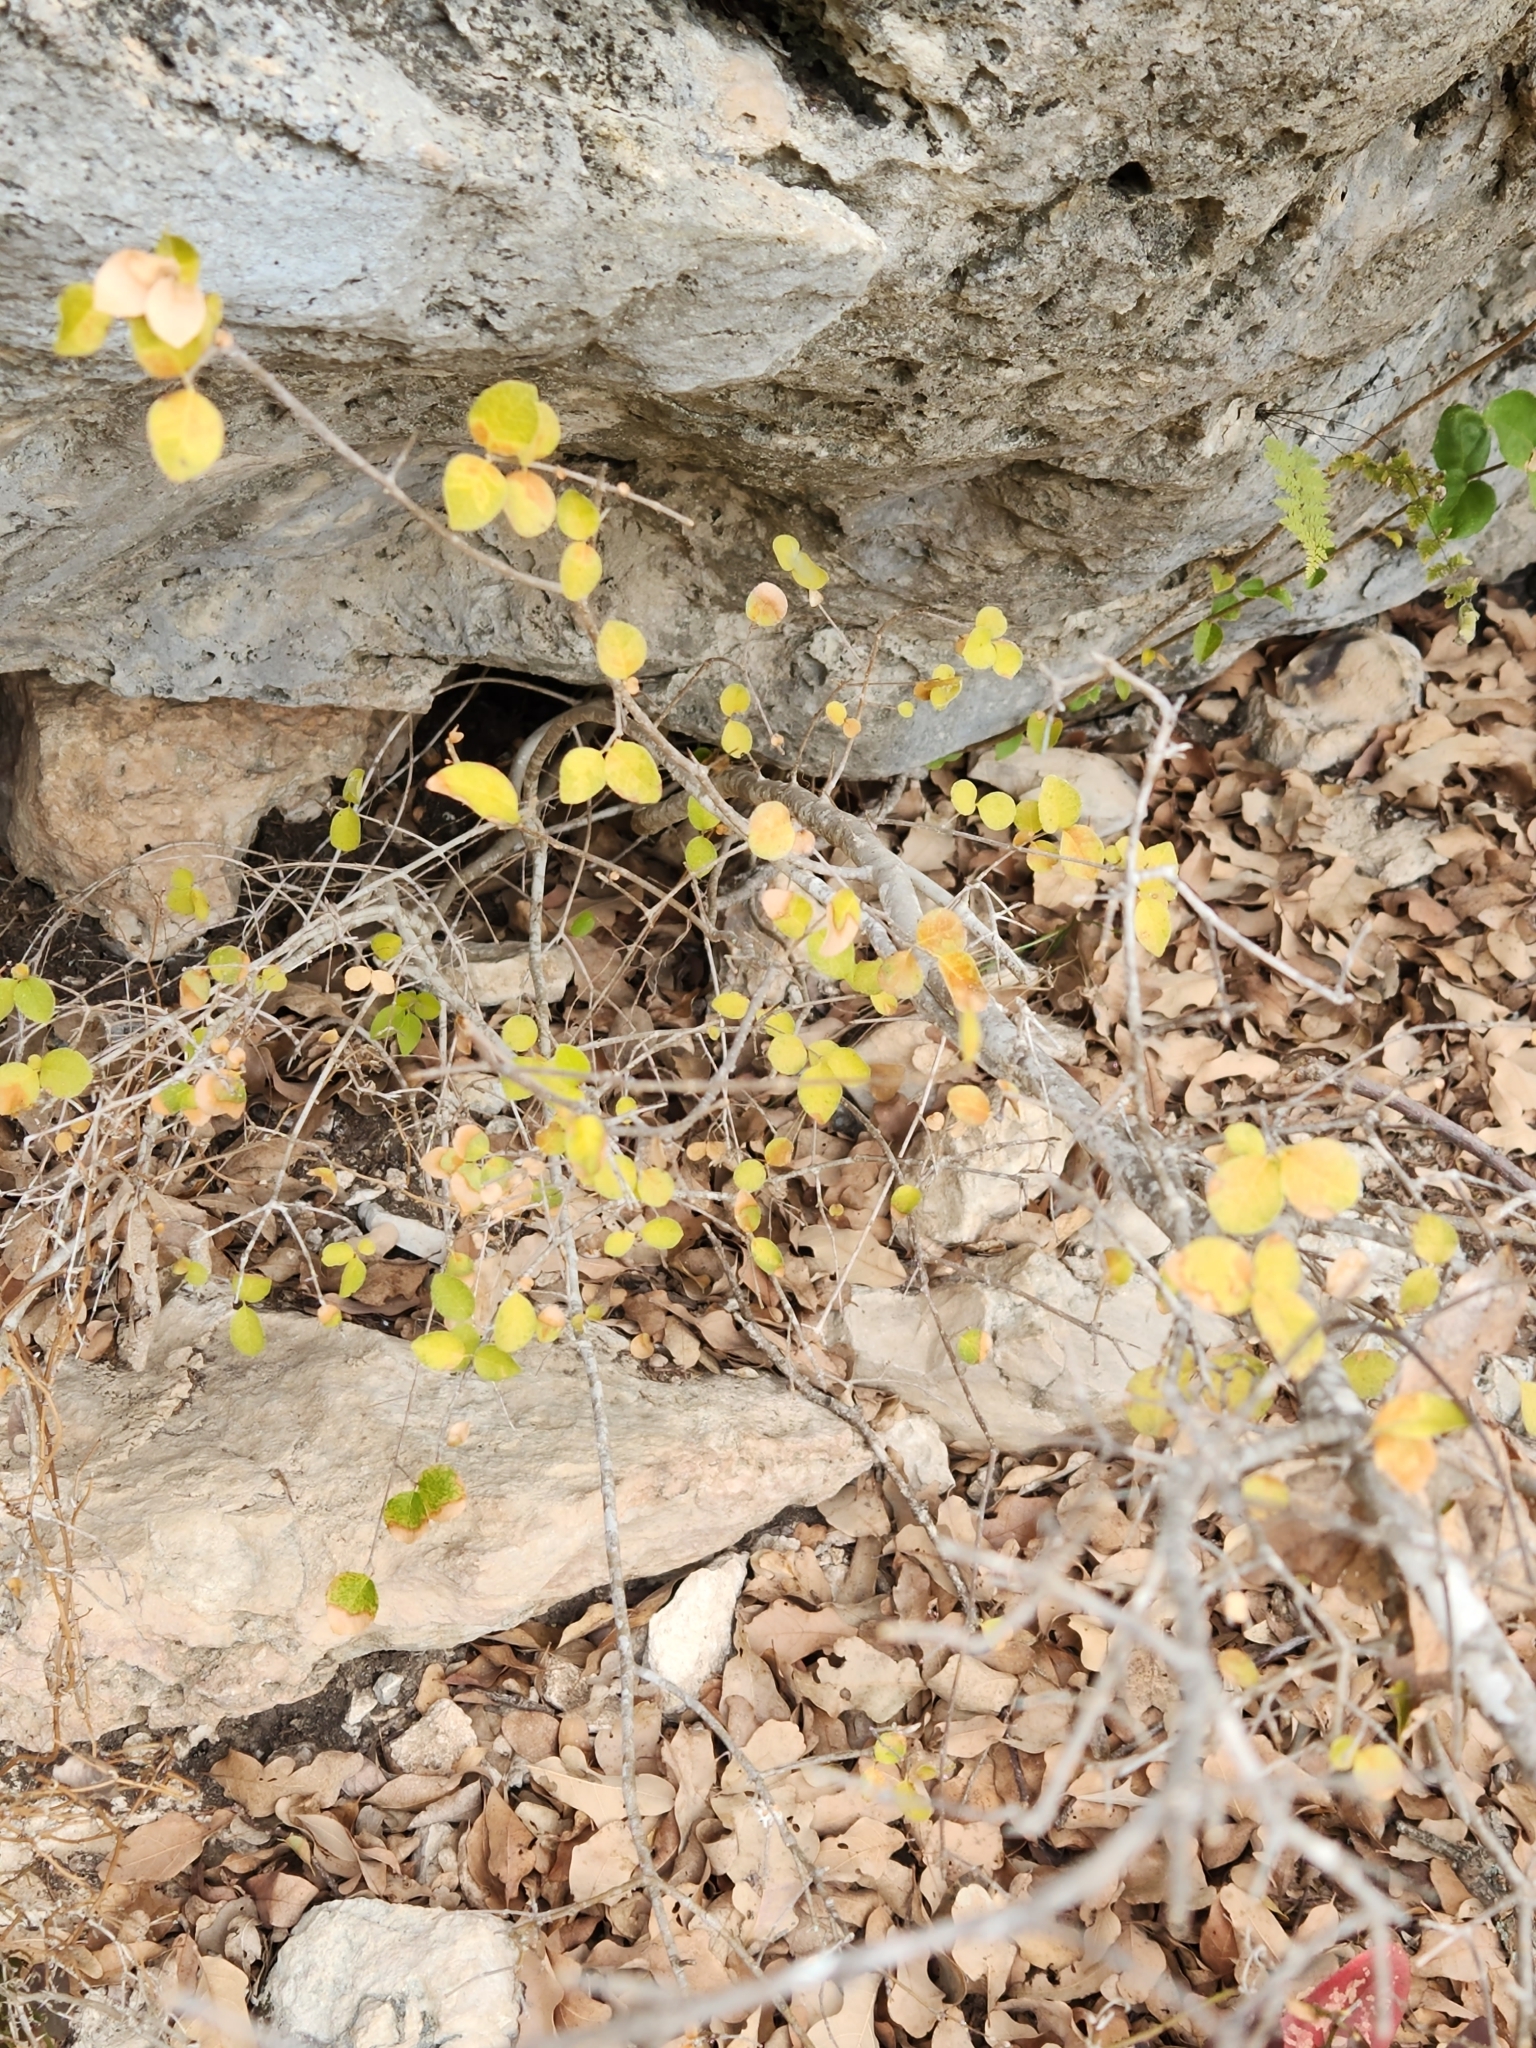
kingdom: Plantae
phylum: Tracheophyta
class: Magnoliopsida
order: Lamiales
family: Oleaceae
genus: Forestiera
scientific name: Forestiera reticulata
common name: Netleaf swamp-privet
